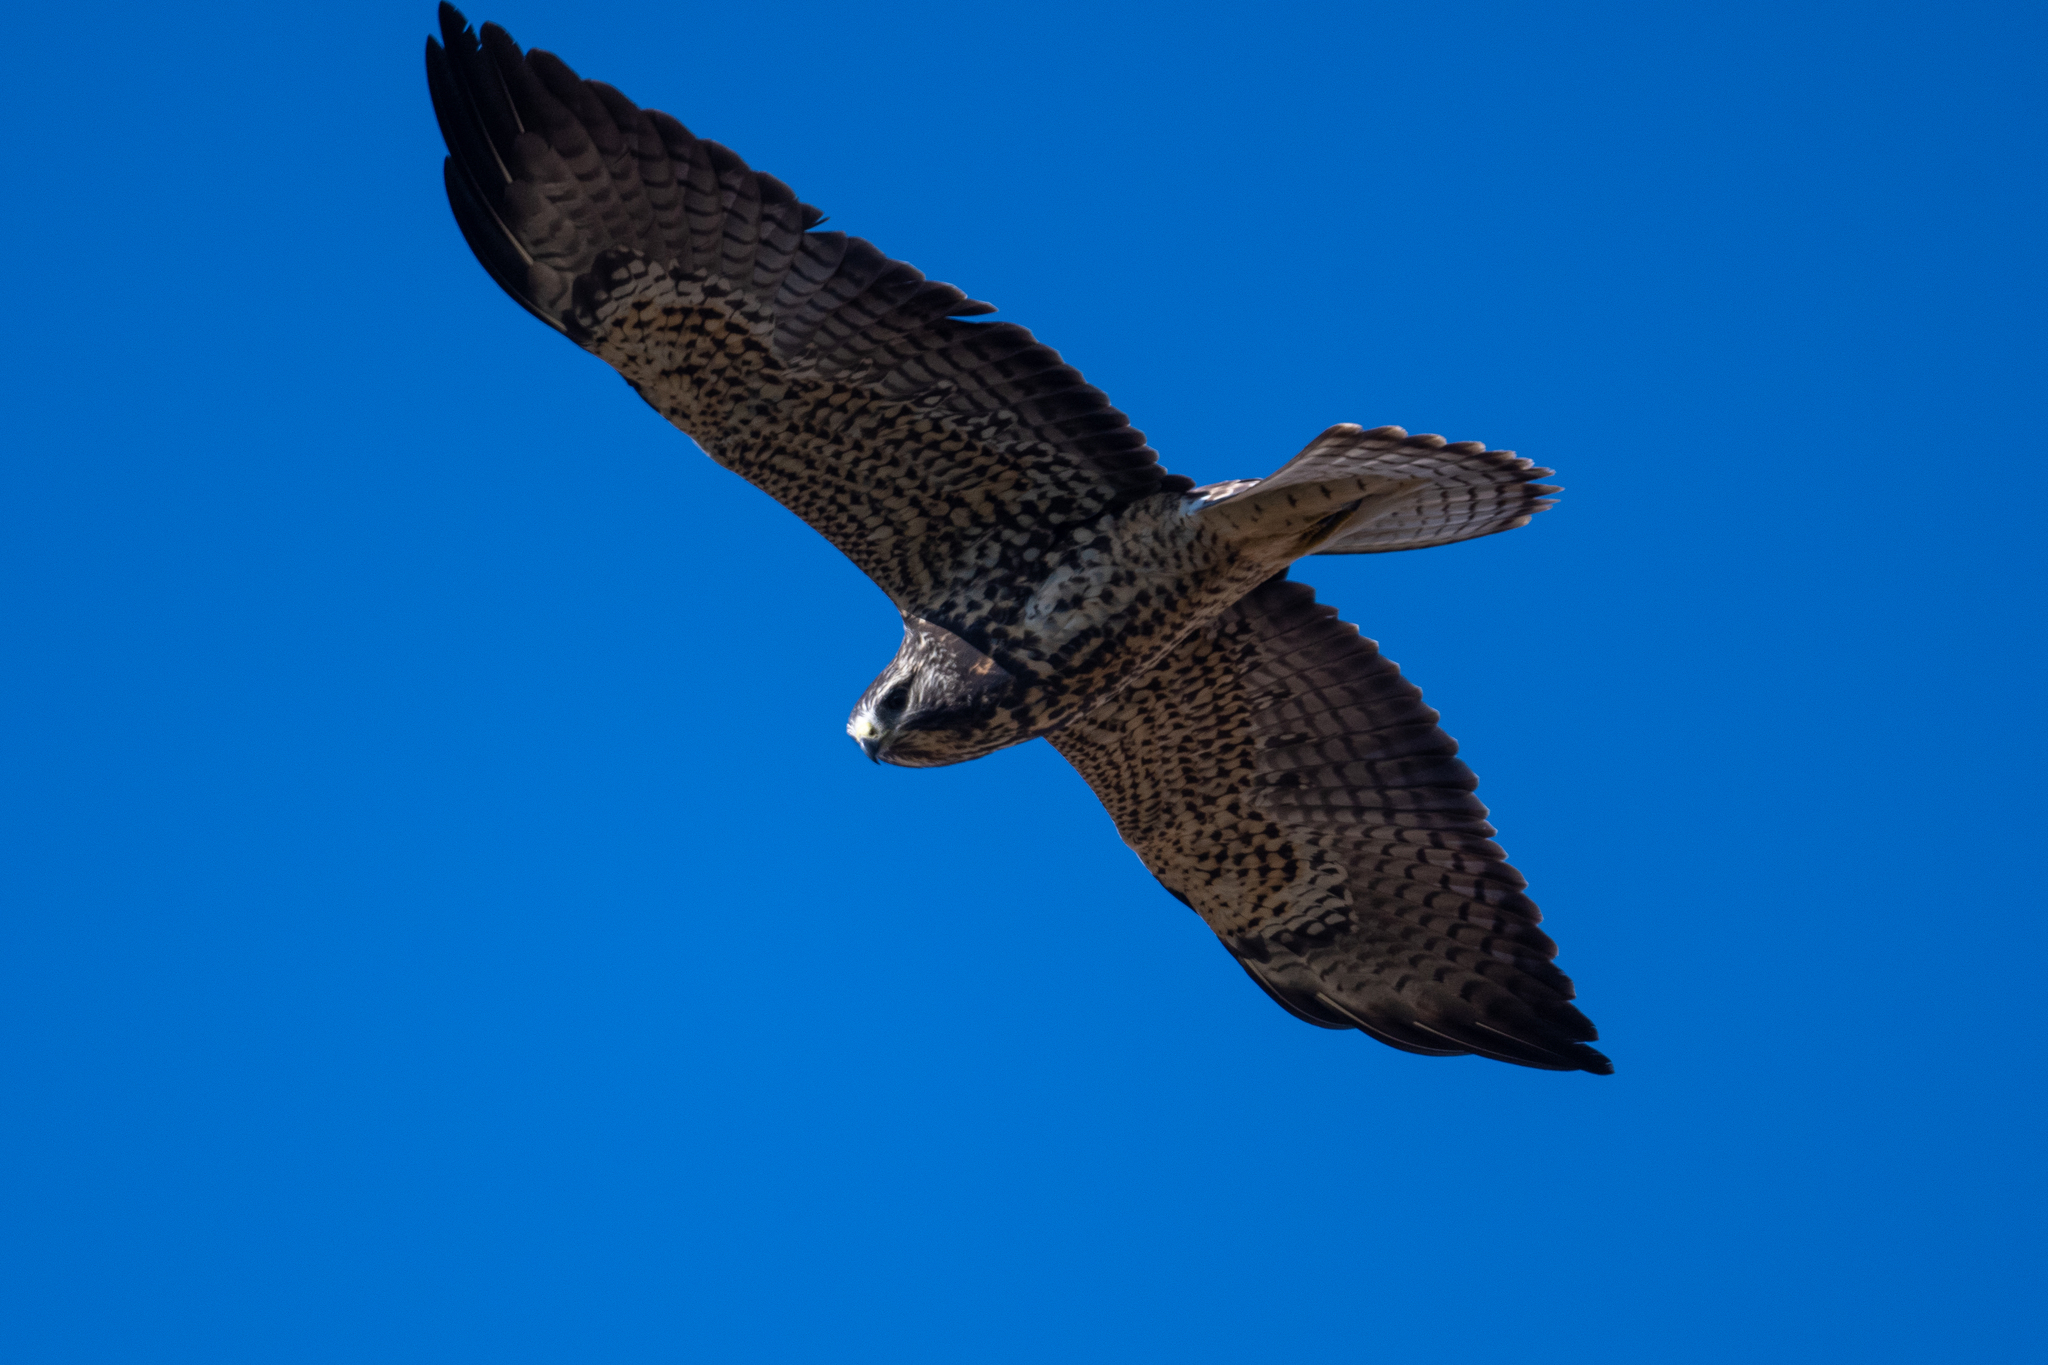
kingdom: Animalia
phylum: Chordata
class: Aves
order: Accipitriformes
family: Accipitridae
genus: Buteo
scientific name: Buteo swainsoni
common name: Swainson's hawk
